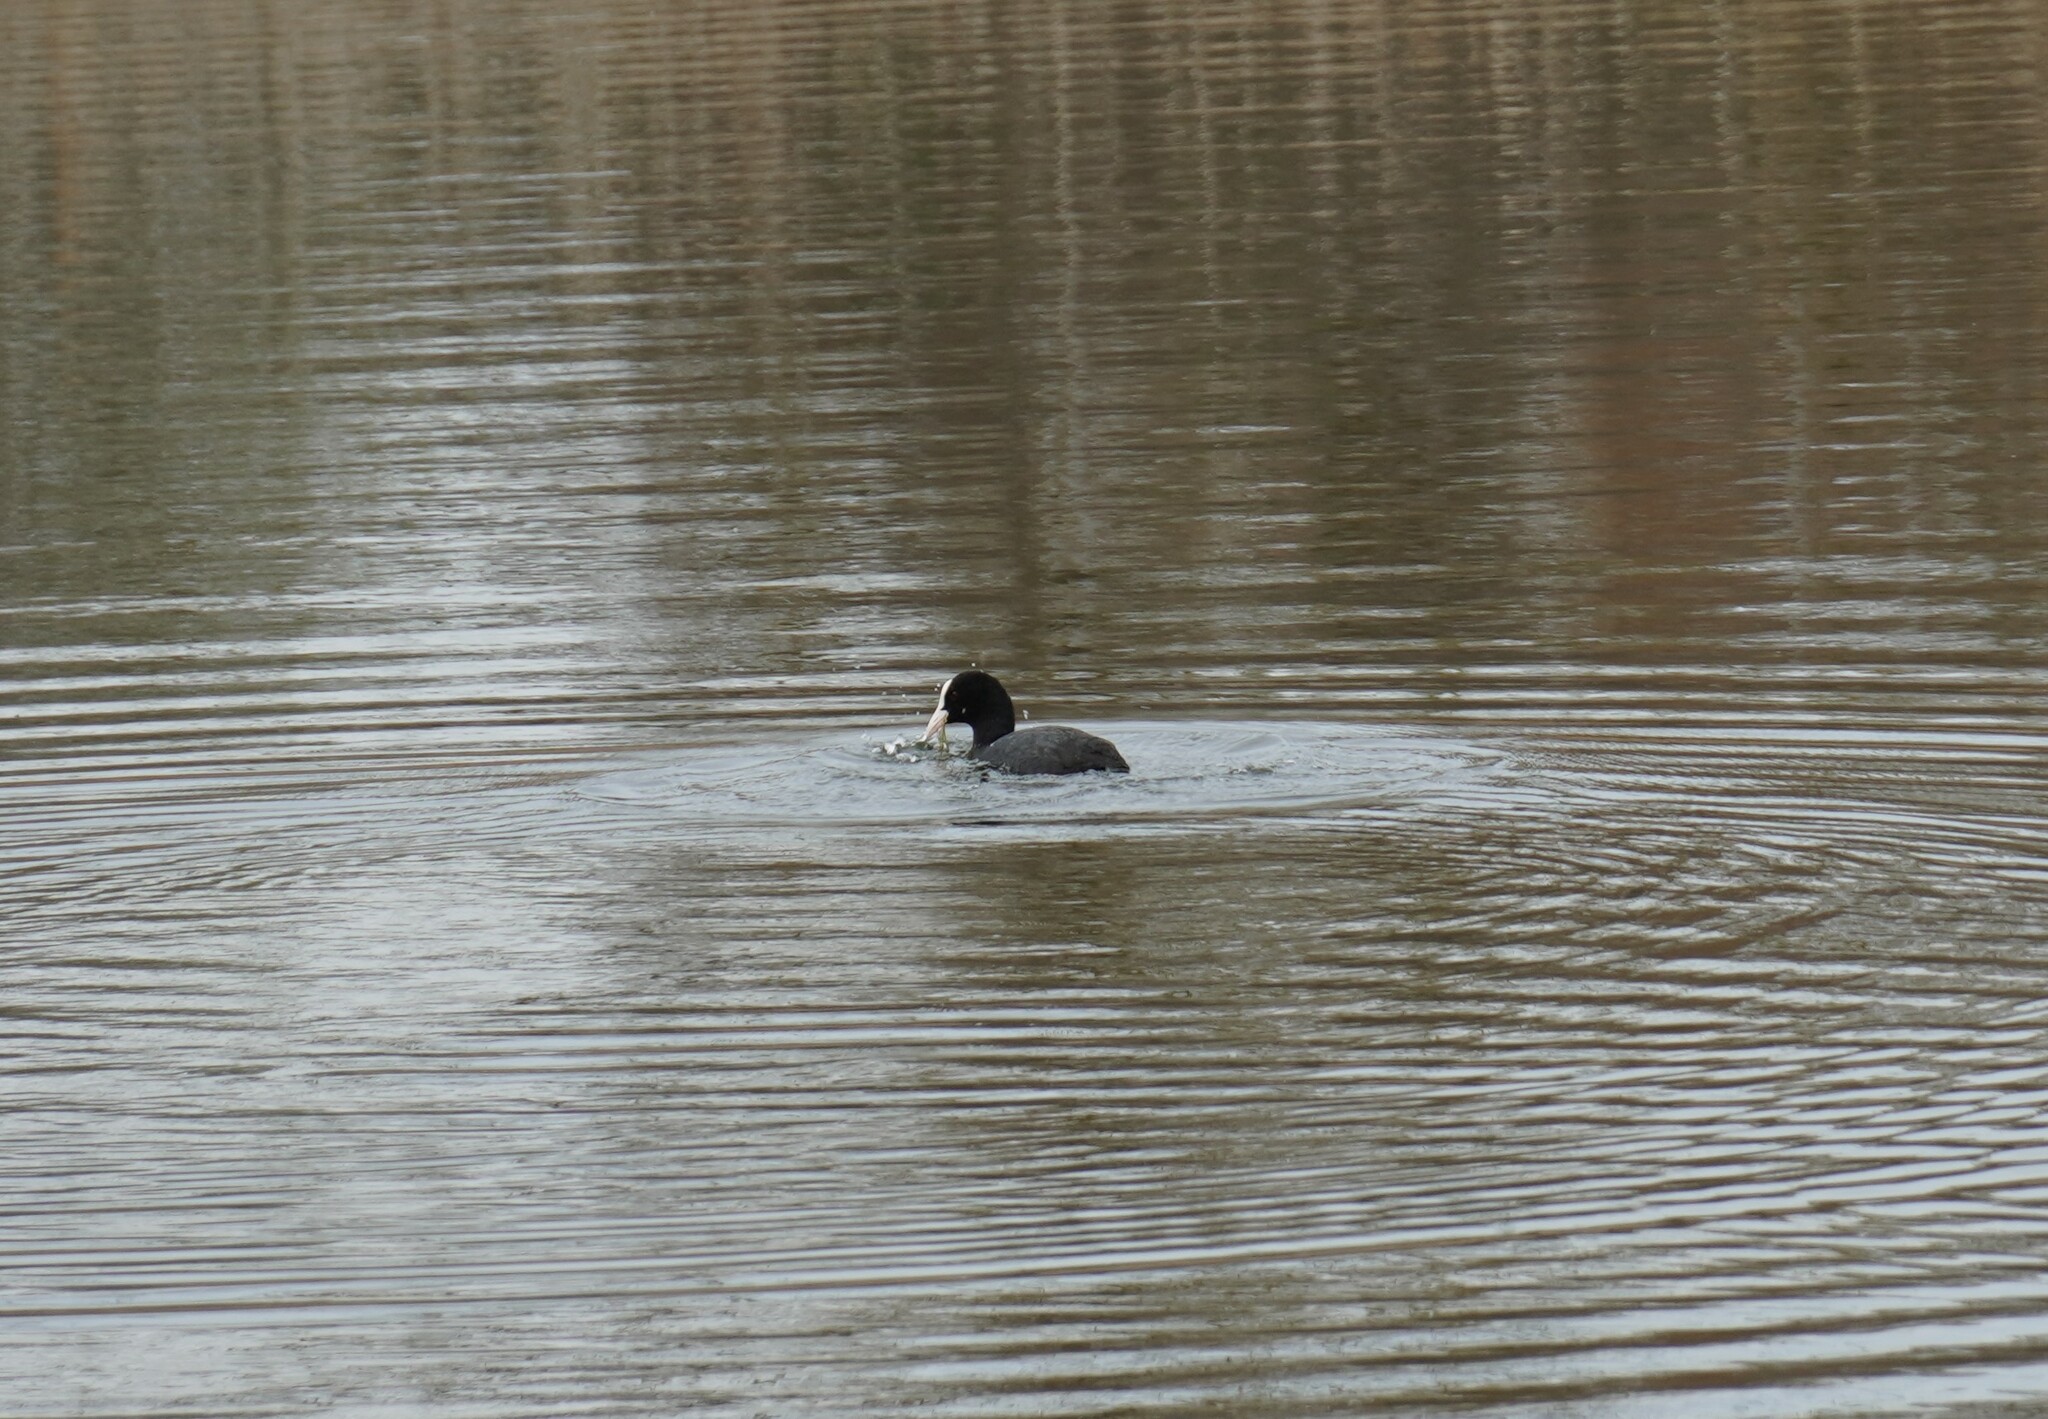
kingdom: Animalia
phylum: Chordata
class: Aves
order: Gruiformes
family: Rallidae
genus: Fulica
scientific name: Fulica atra
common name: Eurasian coot
